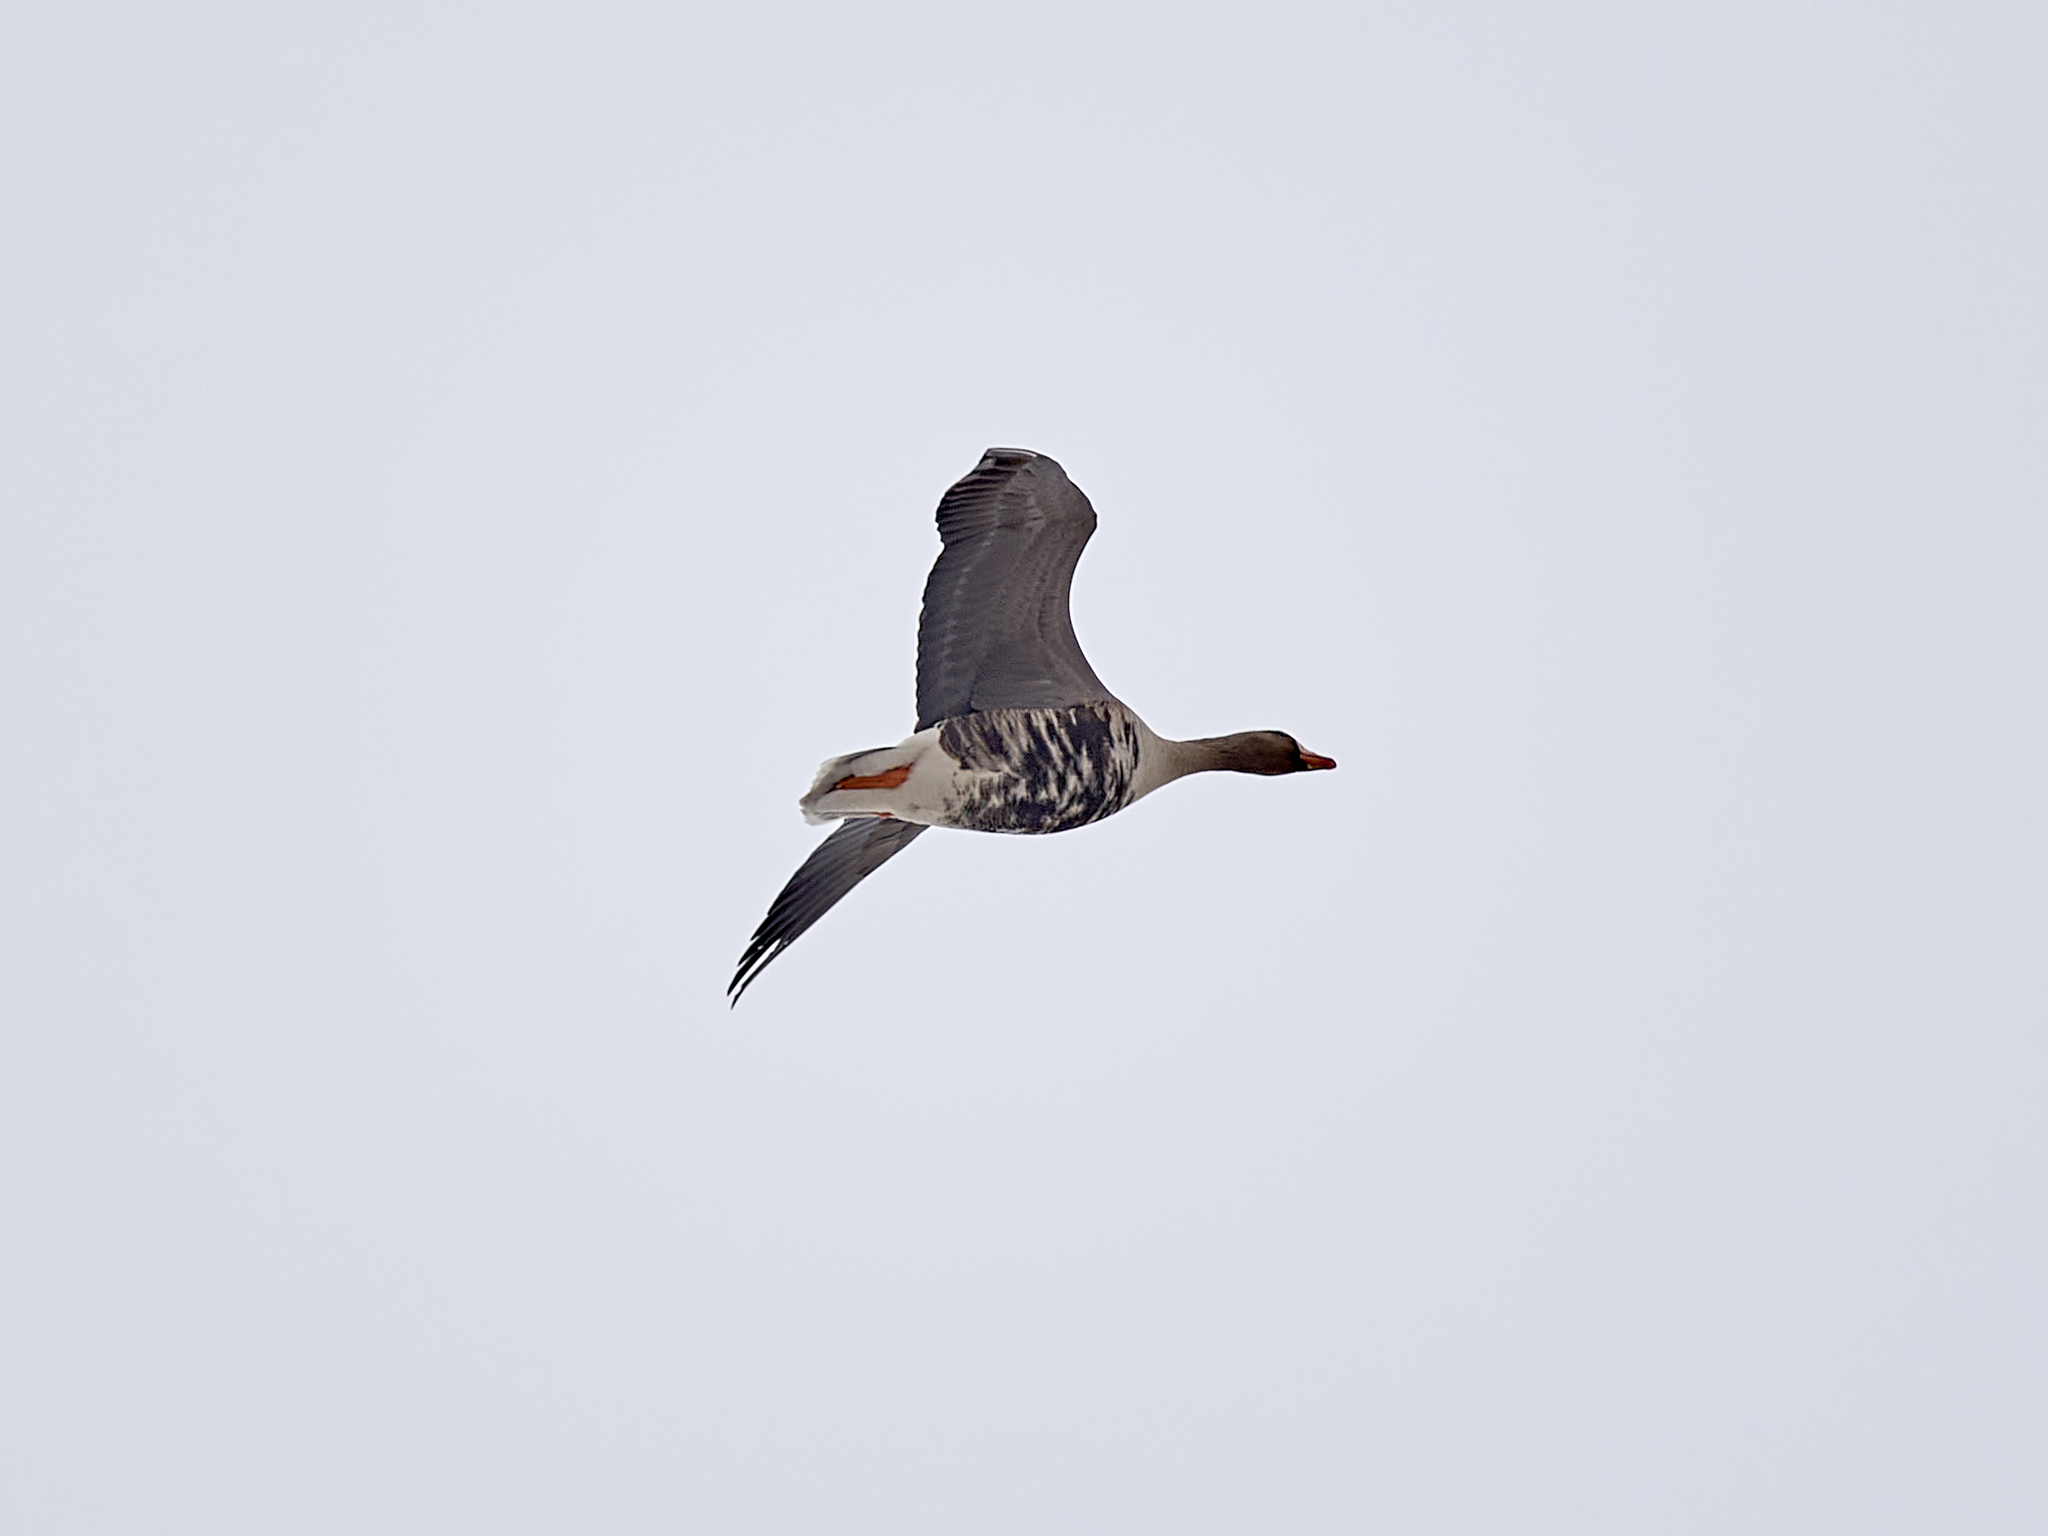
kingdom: Animalia
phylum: Chordata
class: Aves
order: Anseriformes
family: Anatidae
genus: Anser
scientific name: Anser albifrons
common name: Greater white-fronted goose
